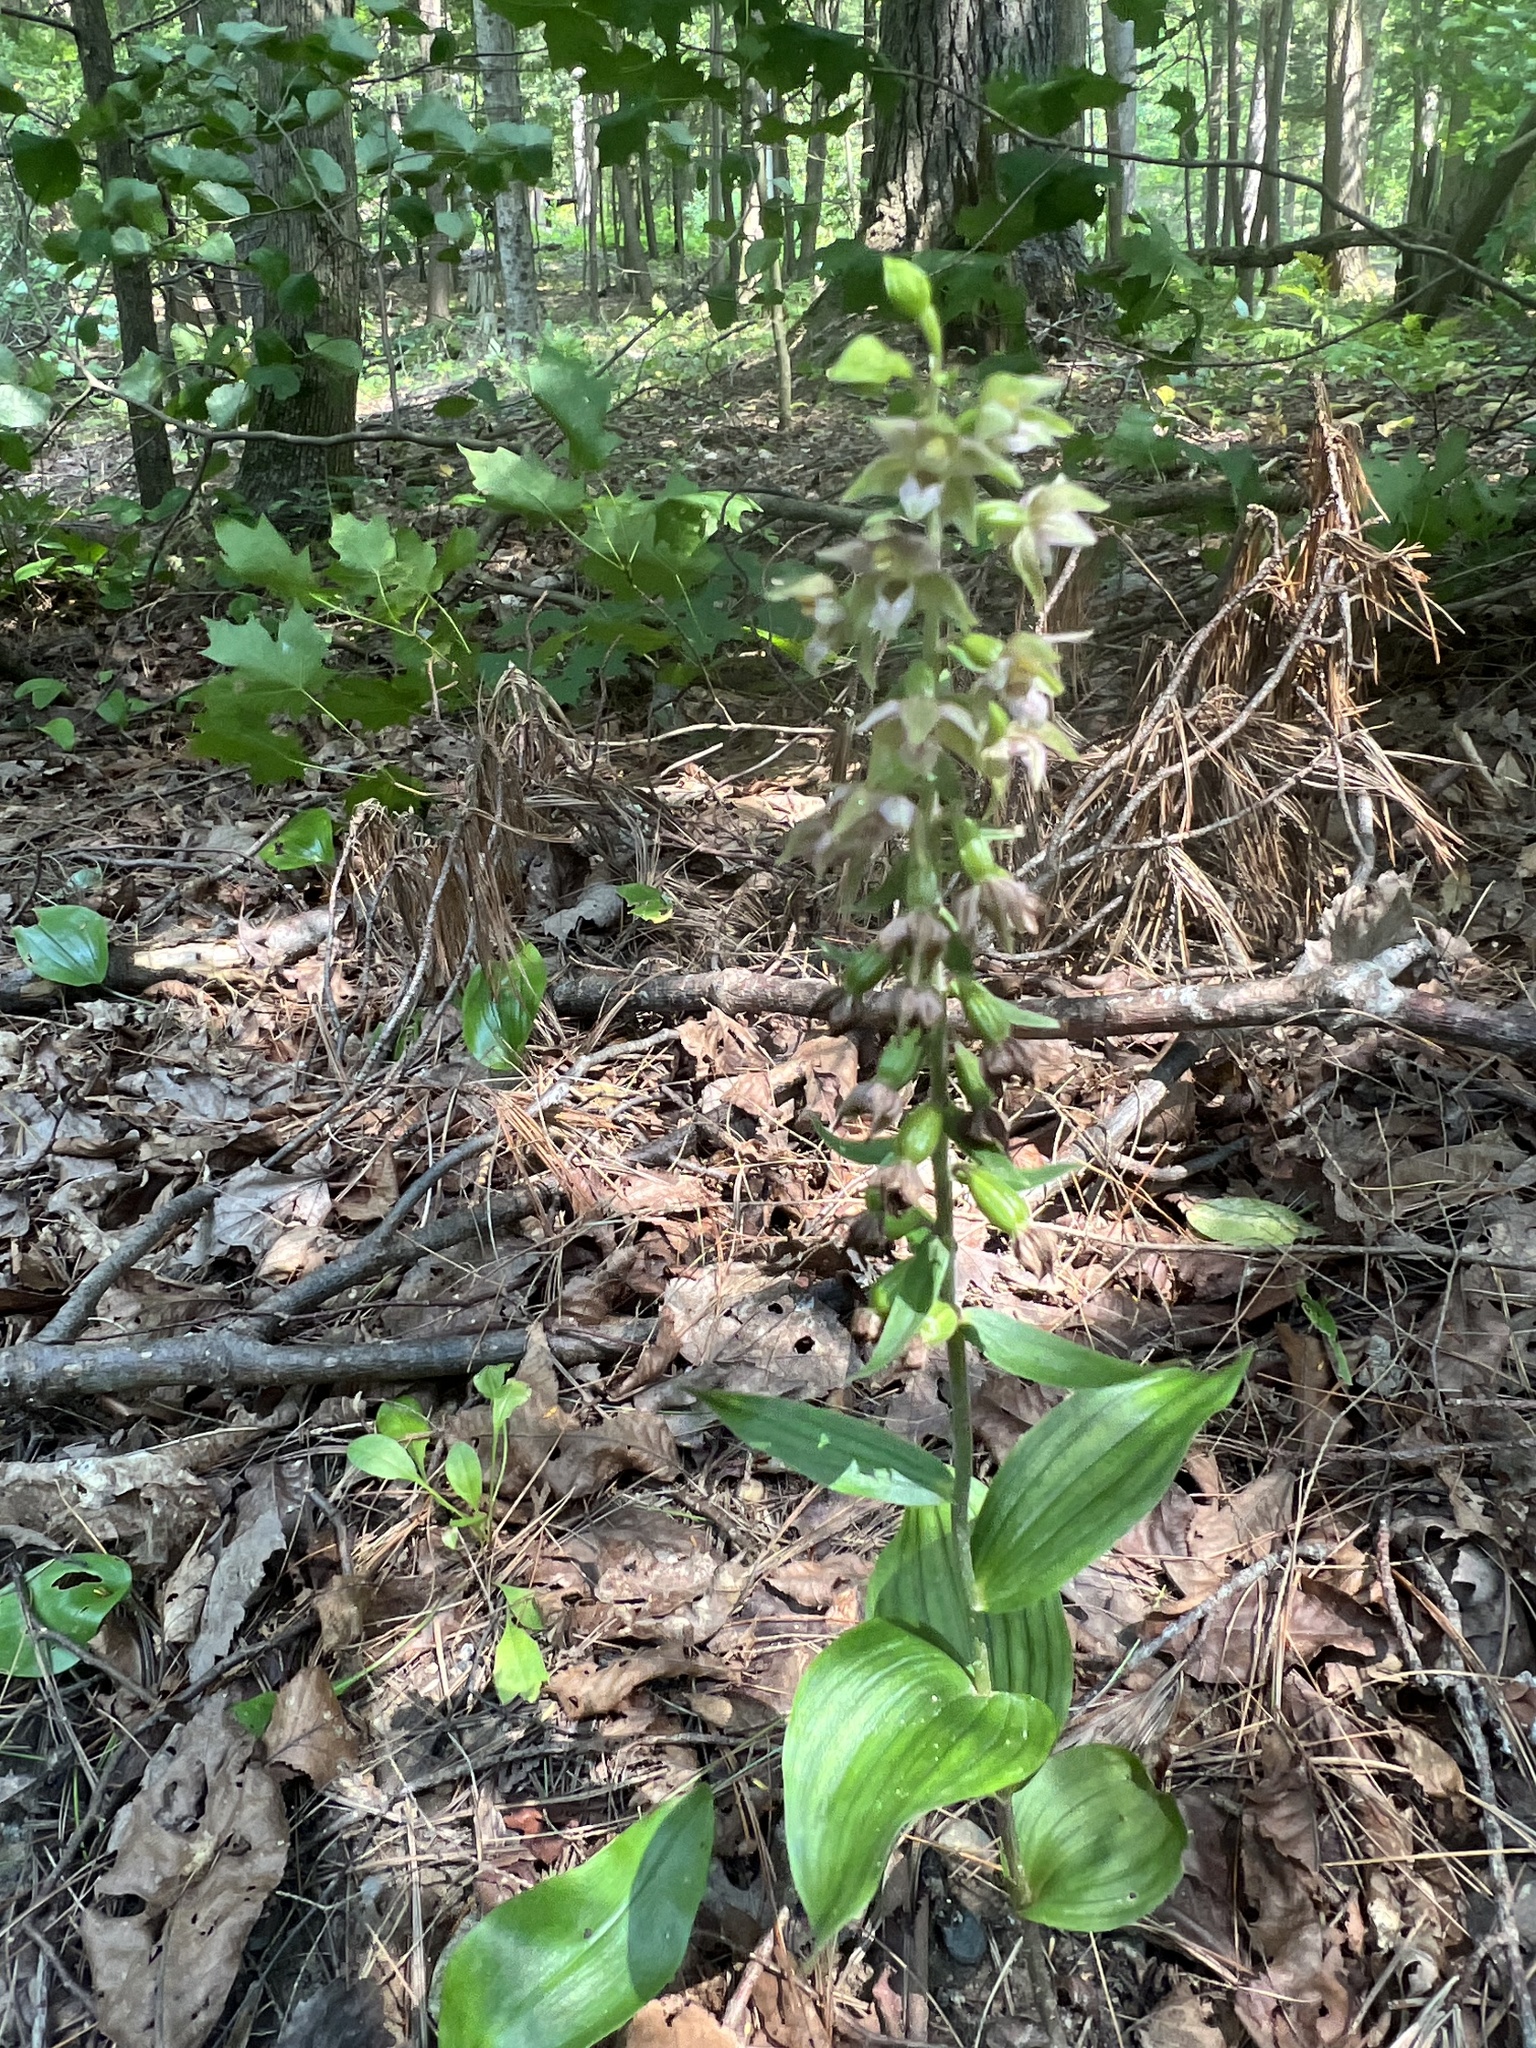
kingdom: Plantae
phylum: Tracheophyta
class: Liliopsida
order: Asparagales
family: Orchidaceae
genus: Epipactis
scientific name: Epipactis helleborine
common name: Broad-leaved helleborine
